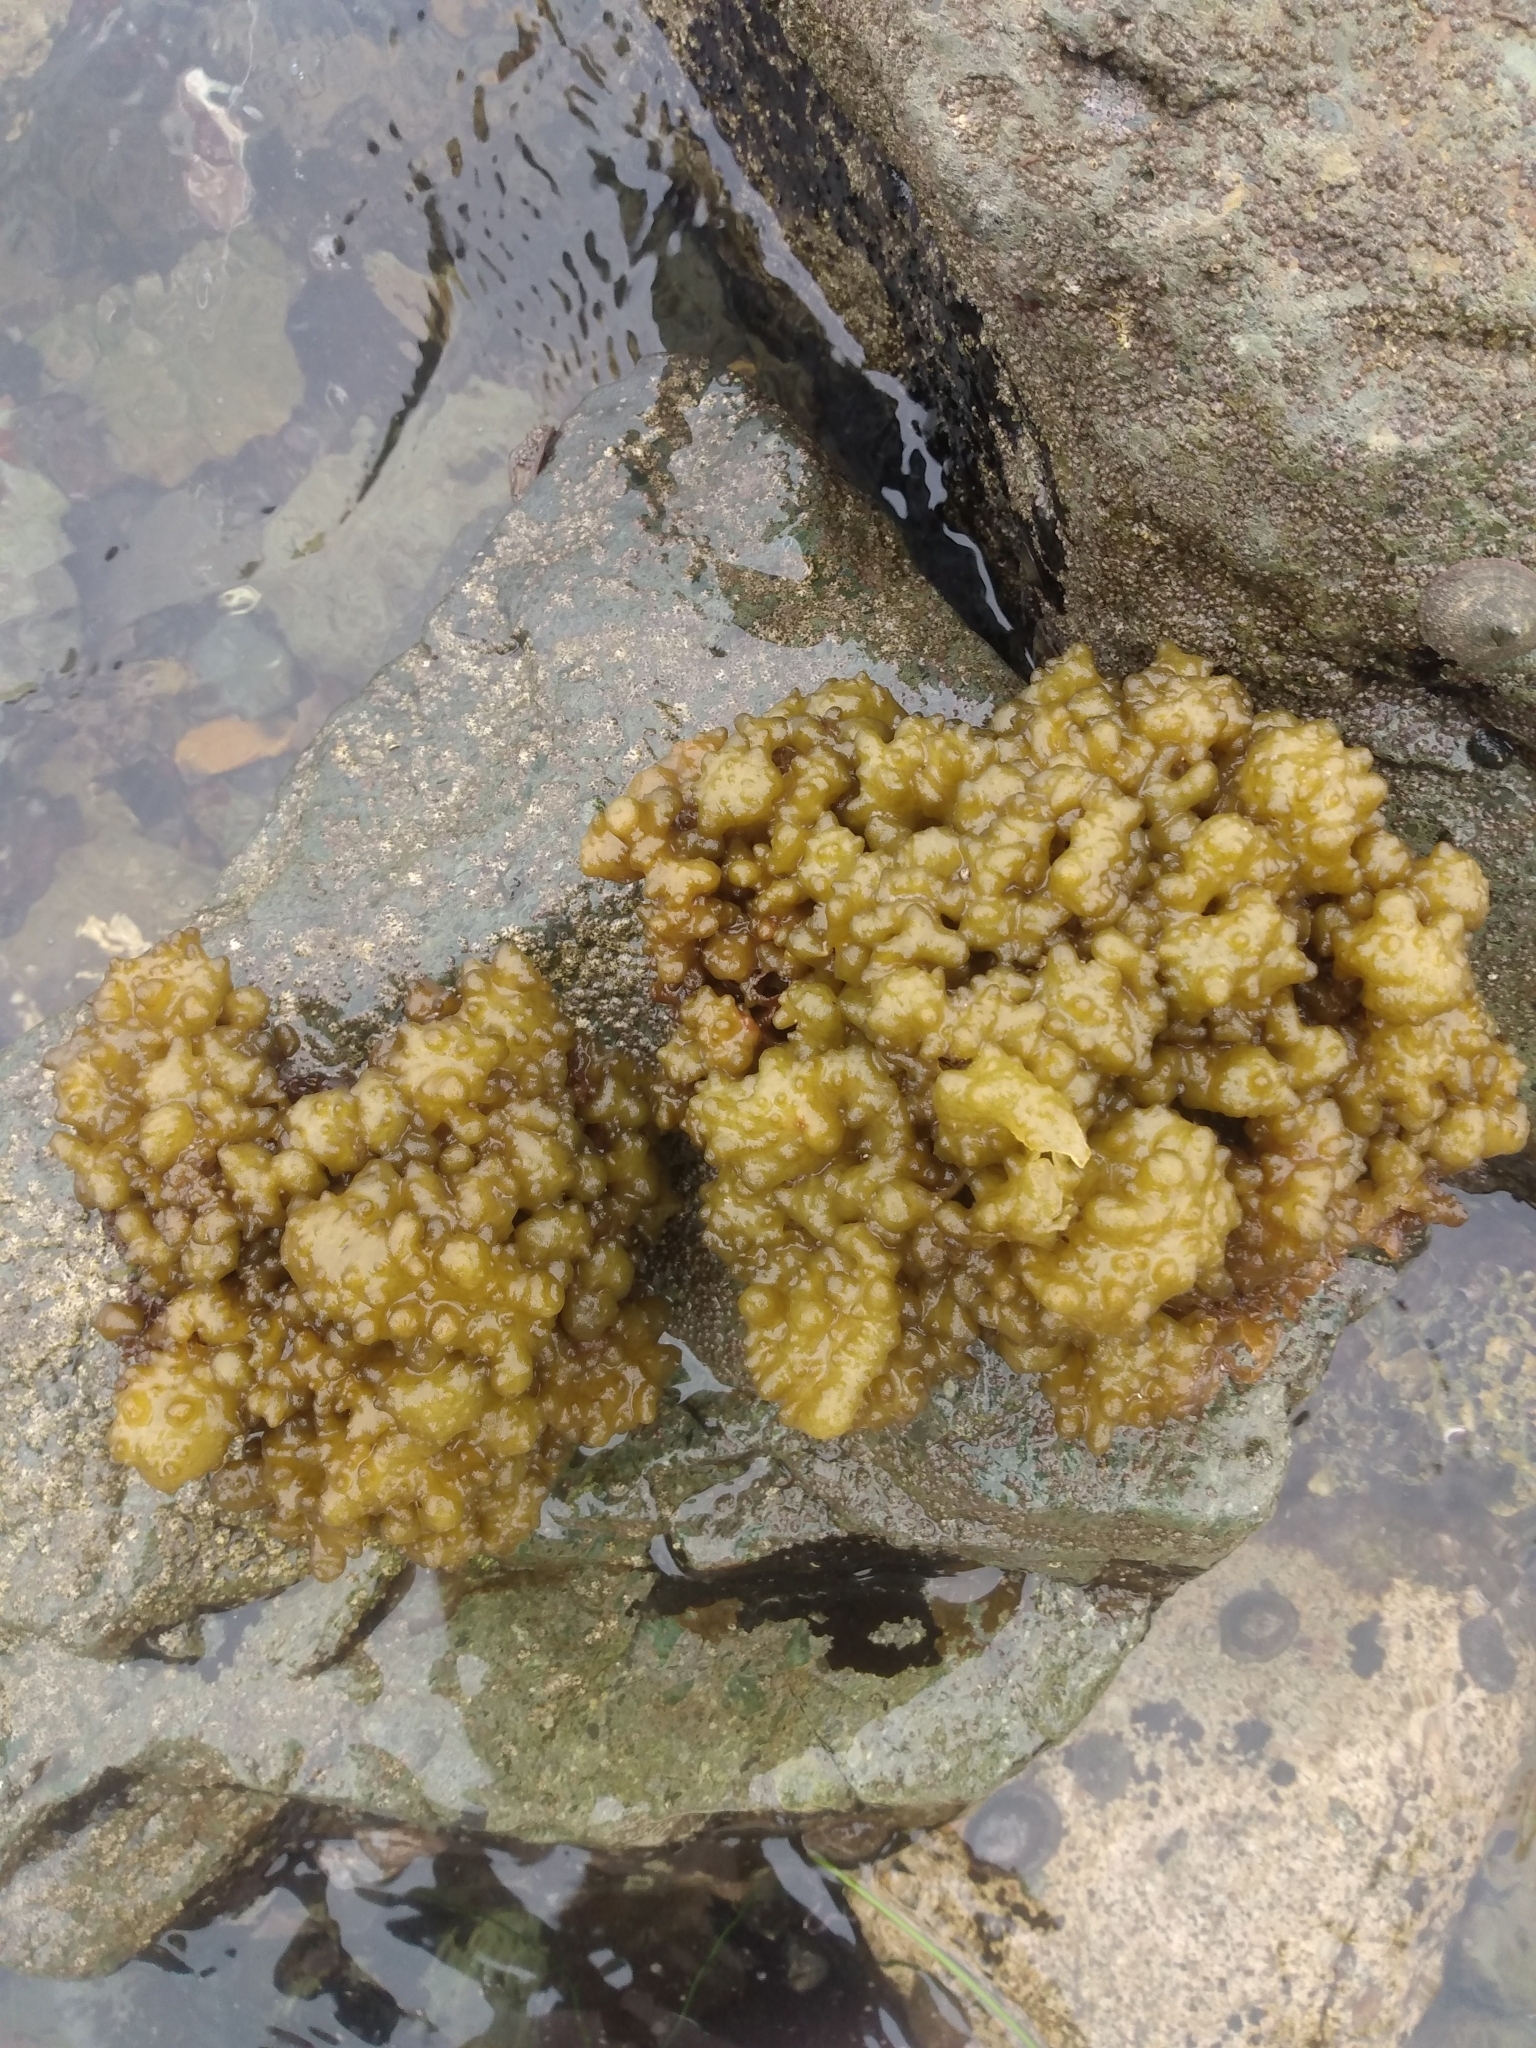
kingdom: Chromista
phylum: Ochrophyta
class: Phaeophyceae
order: Scytosiphonales
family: Scytosiphonaceae
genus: Colpomenia
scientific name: Colpomenia
